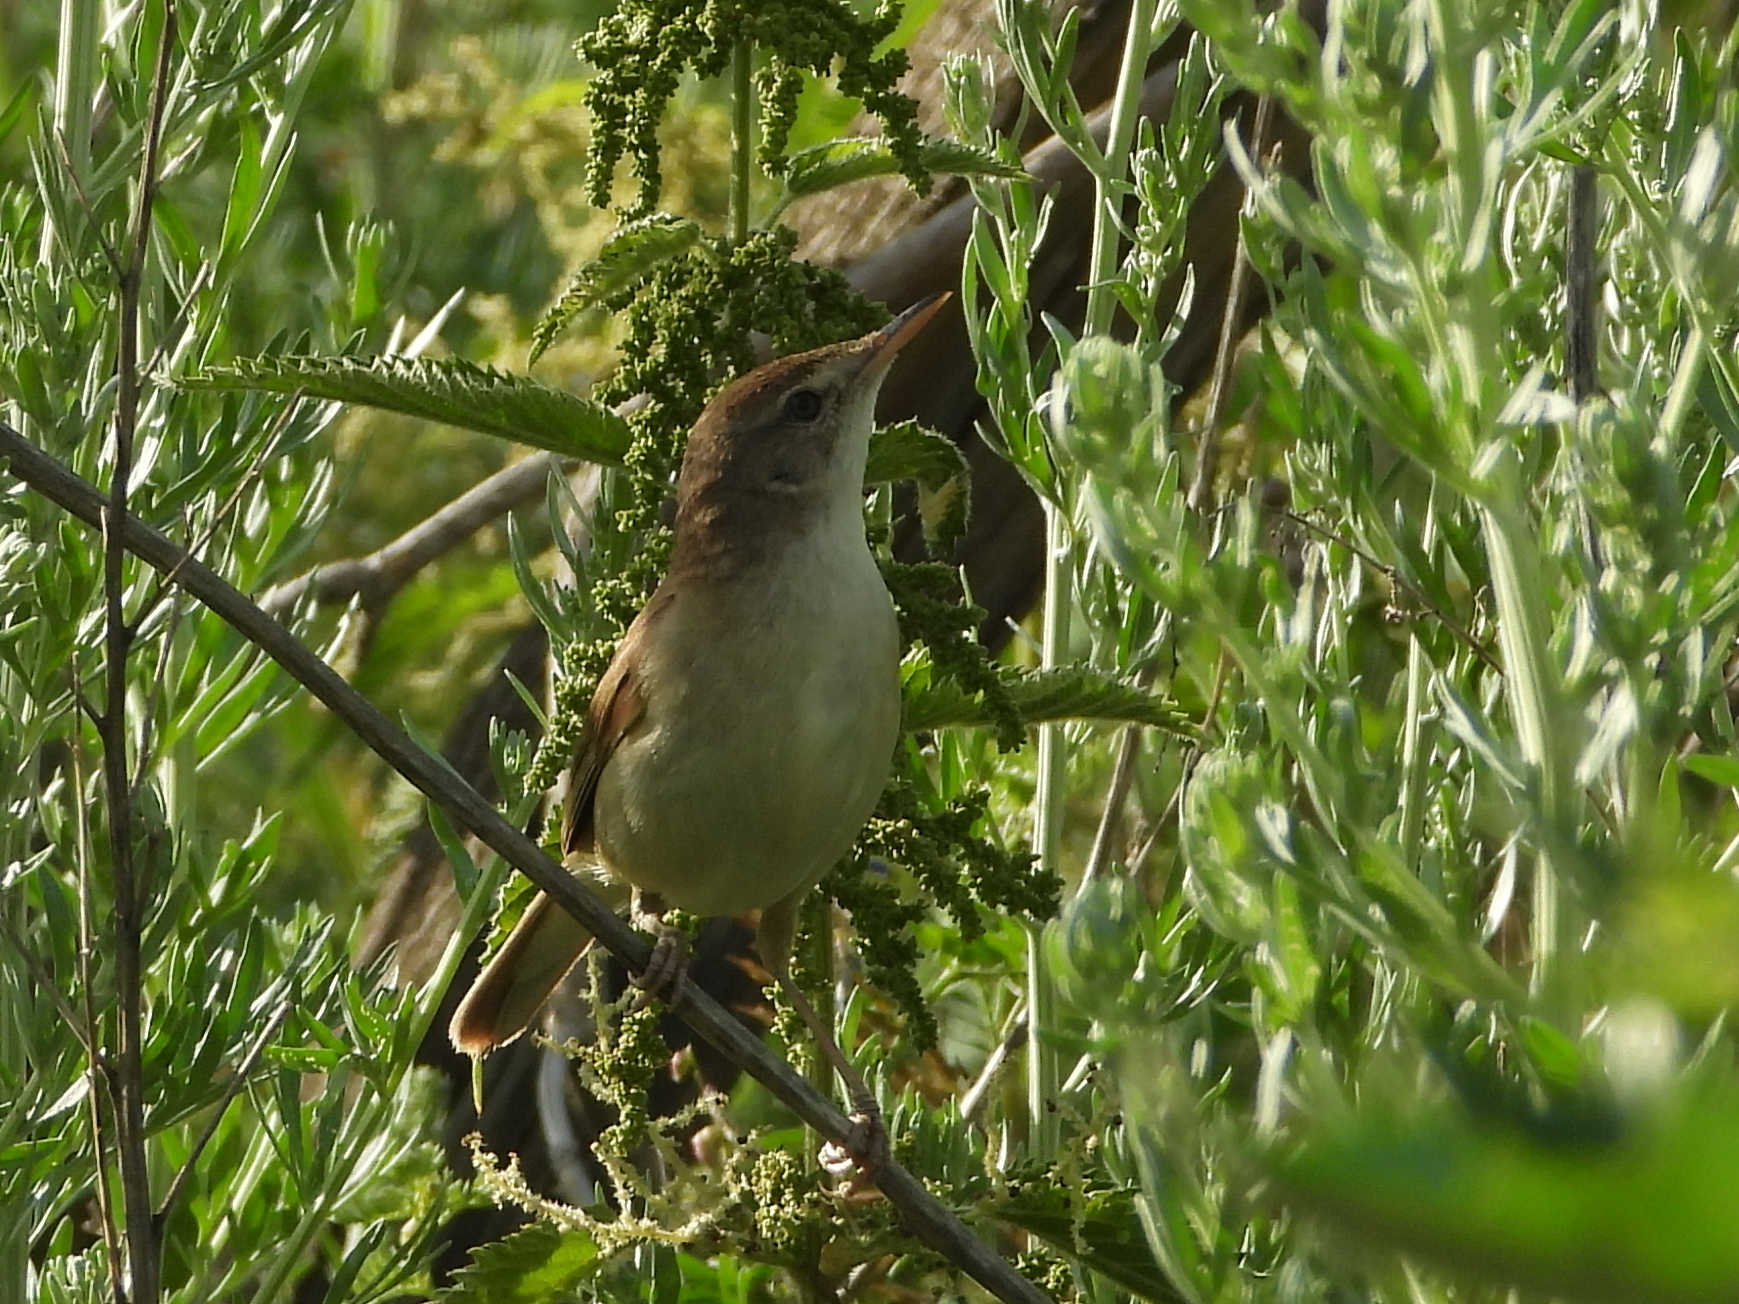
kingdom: Animalia
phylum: Chordata
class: Aves
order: Passeriformes
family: Acrocephalidae
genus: Acrocephalus
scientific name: Acrocephalus dumetorum
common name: Blyth's reed warbler
